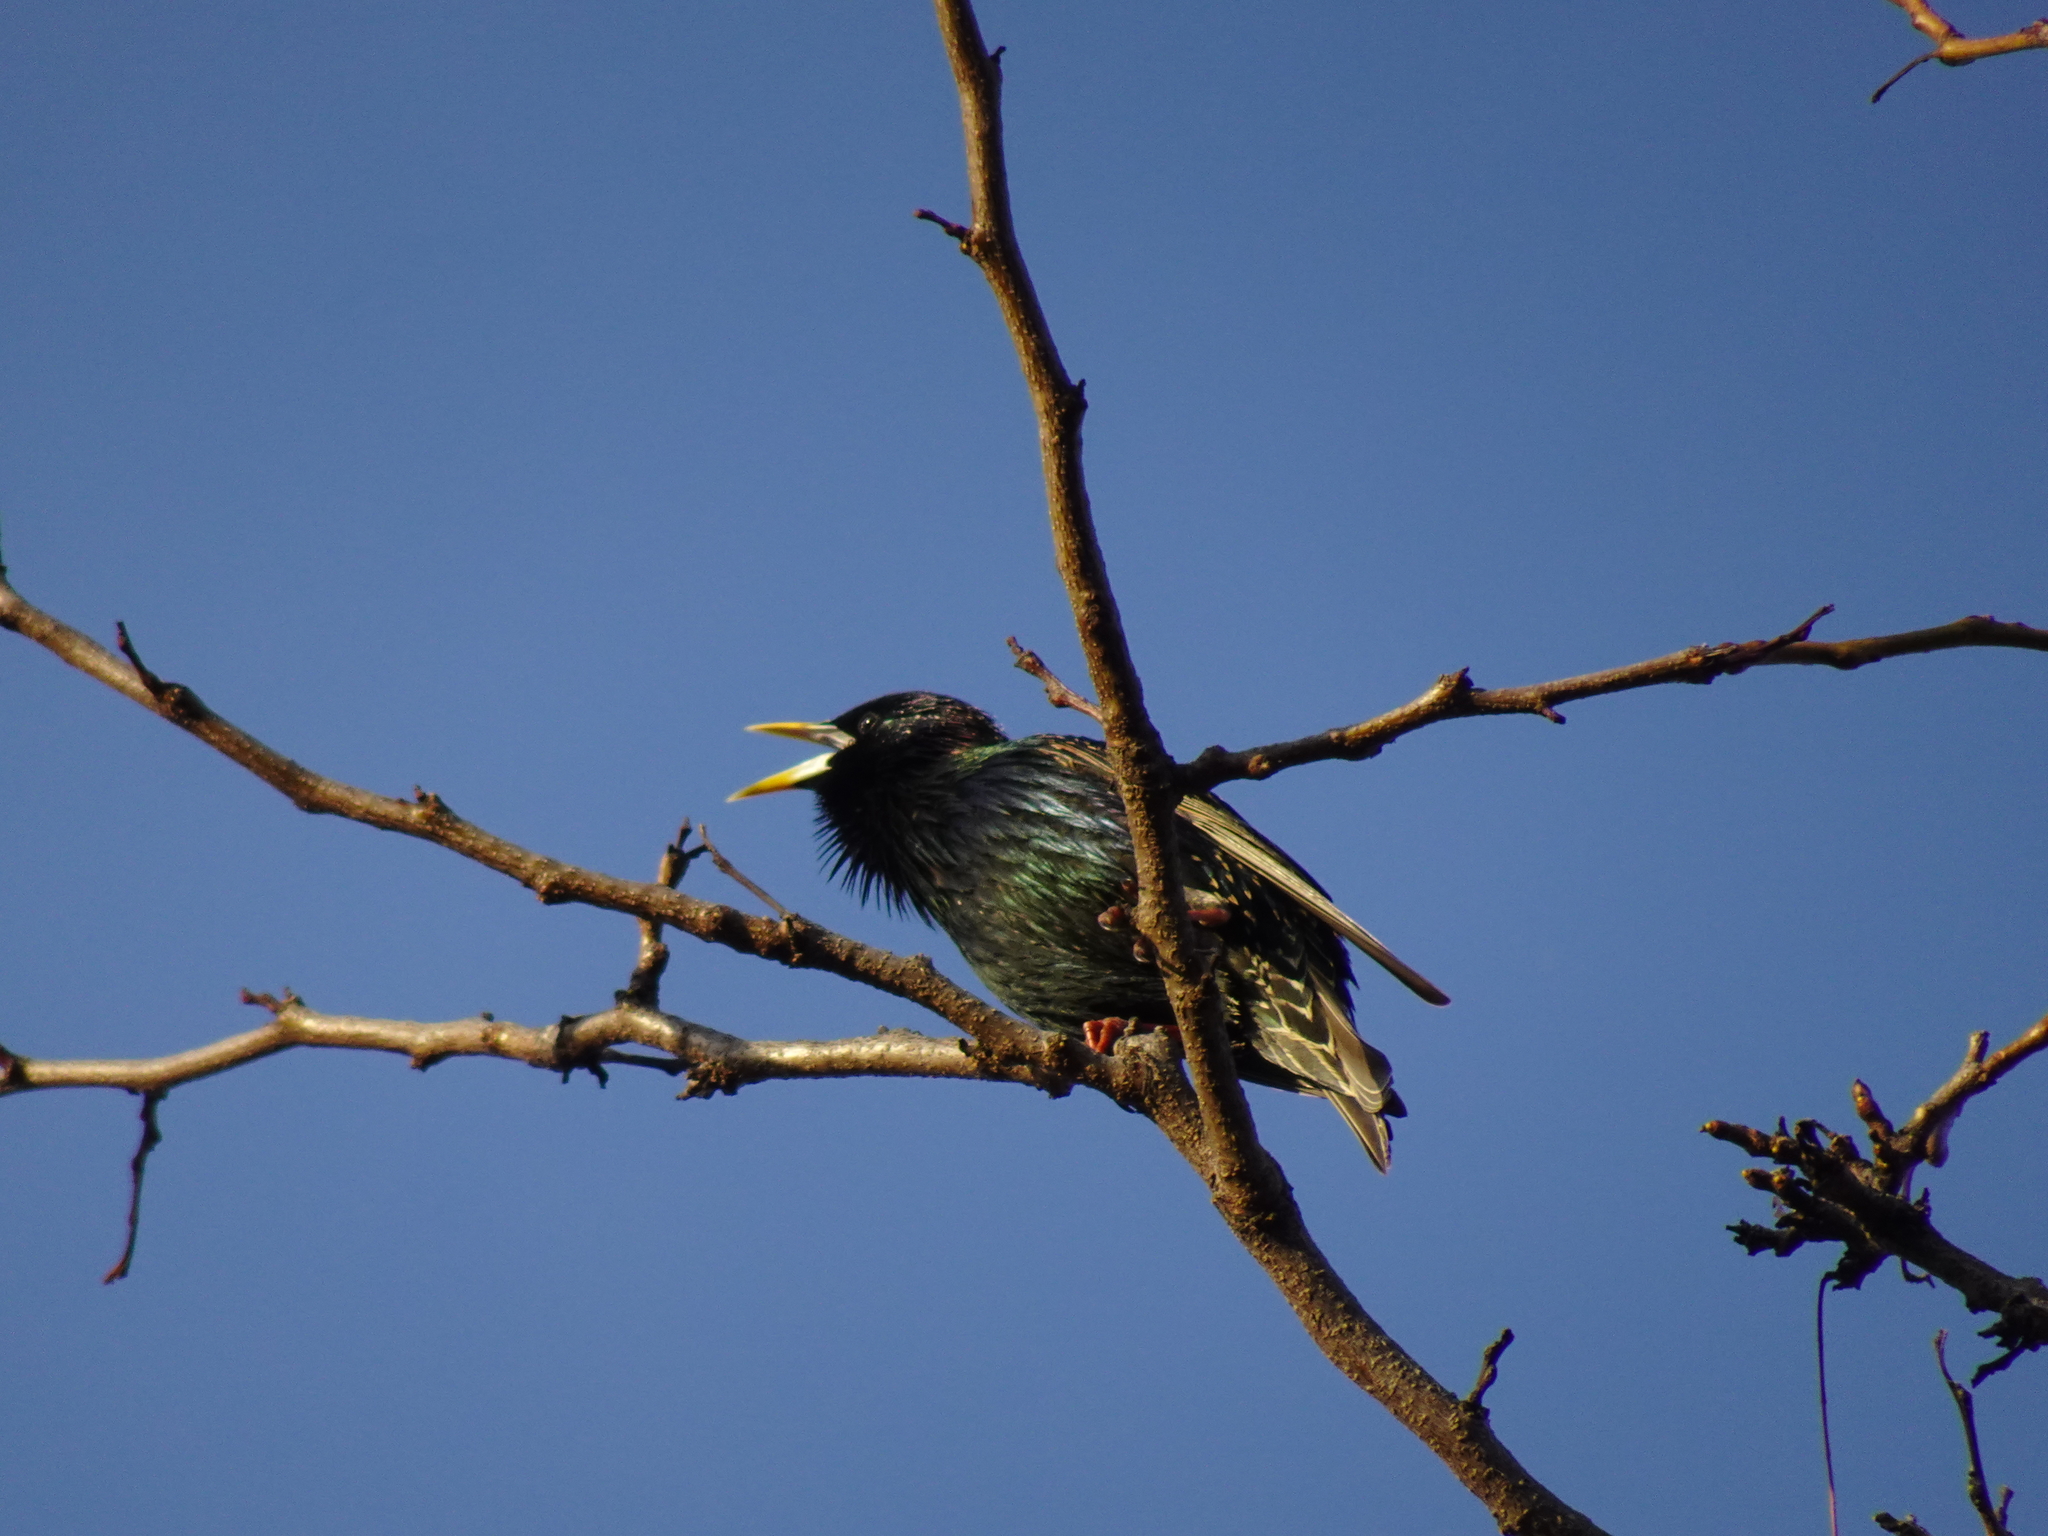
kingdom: Animalia
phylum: Chordata
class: Aves
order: Passeriformes
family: Sturnidae
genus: Sturnus
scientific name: Sturnus vulgaris
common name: Common starling
